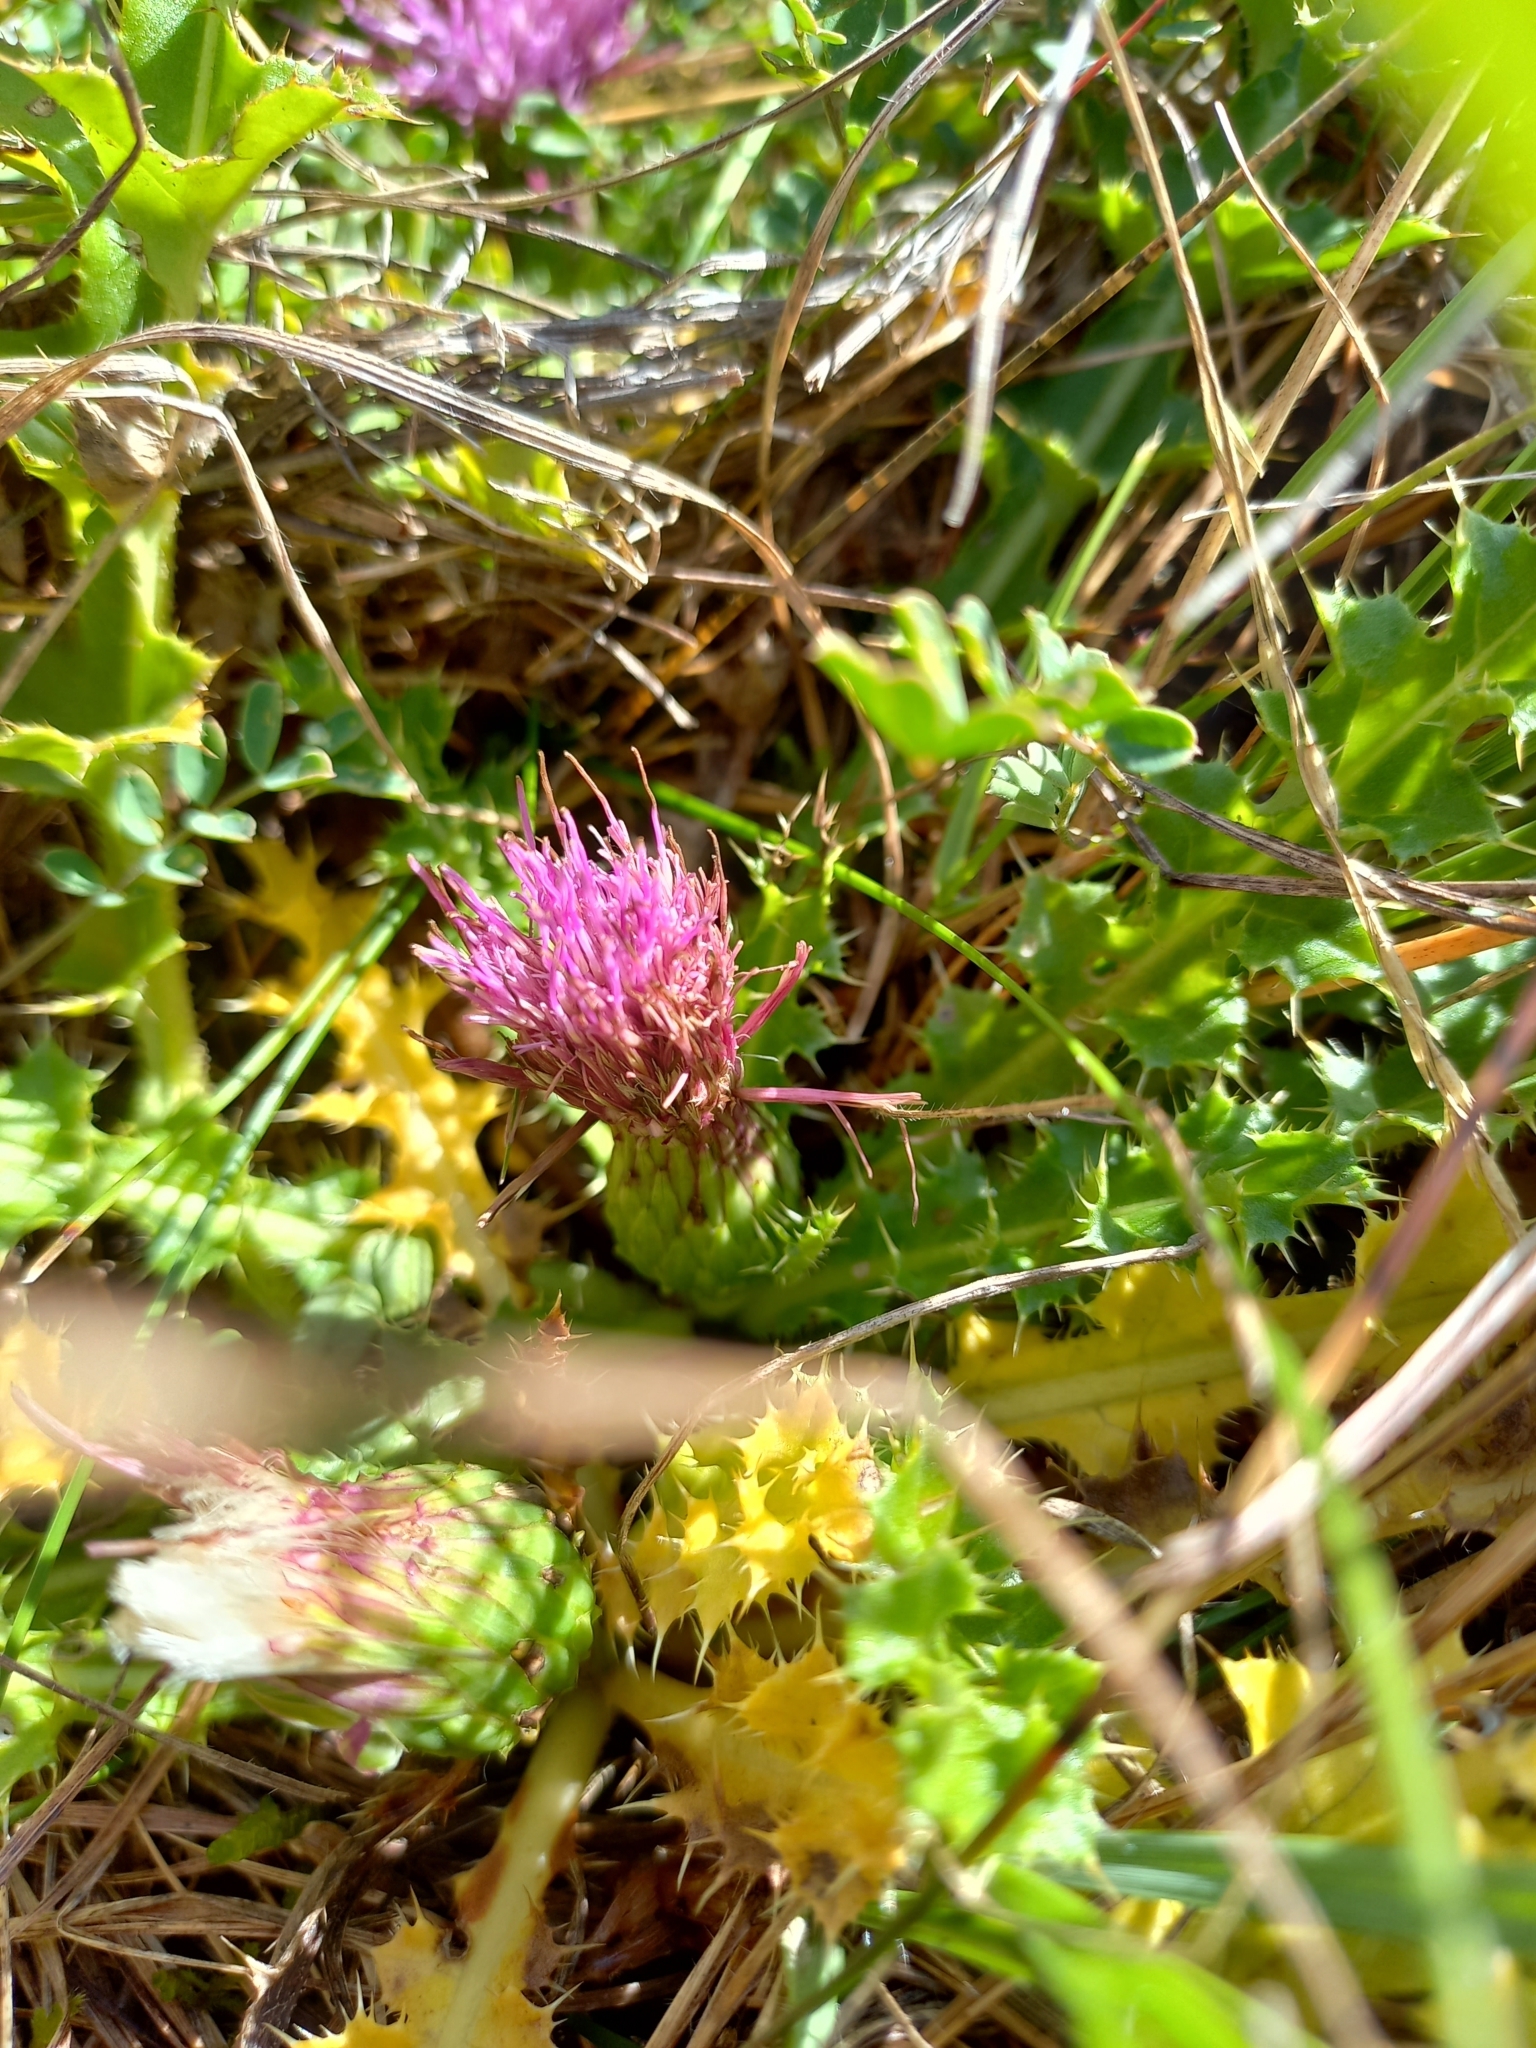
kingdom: Plantae
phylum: Tracheophyta
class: Magnoliopsida
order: Asterales
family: Asteraceae
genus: Cirsium
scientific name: Cirsium acaulon
